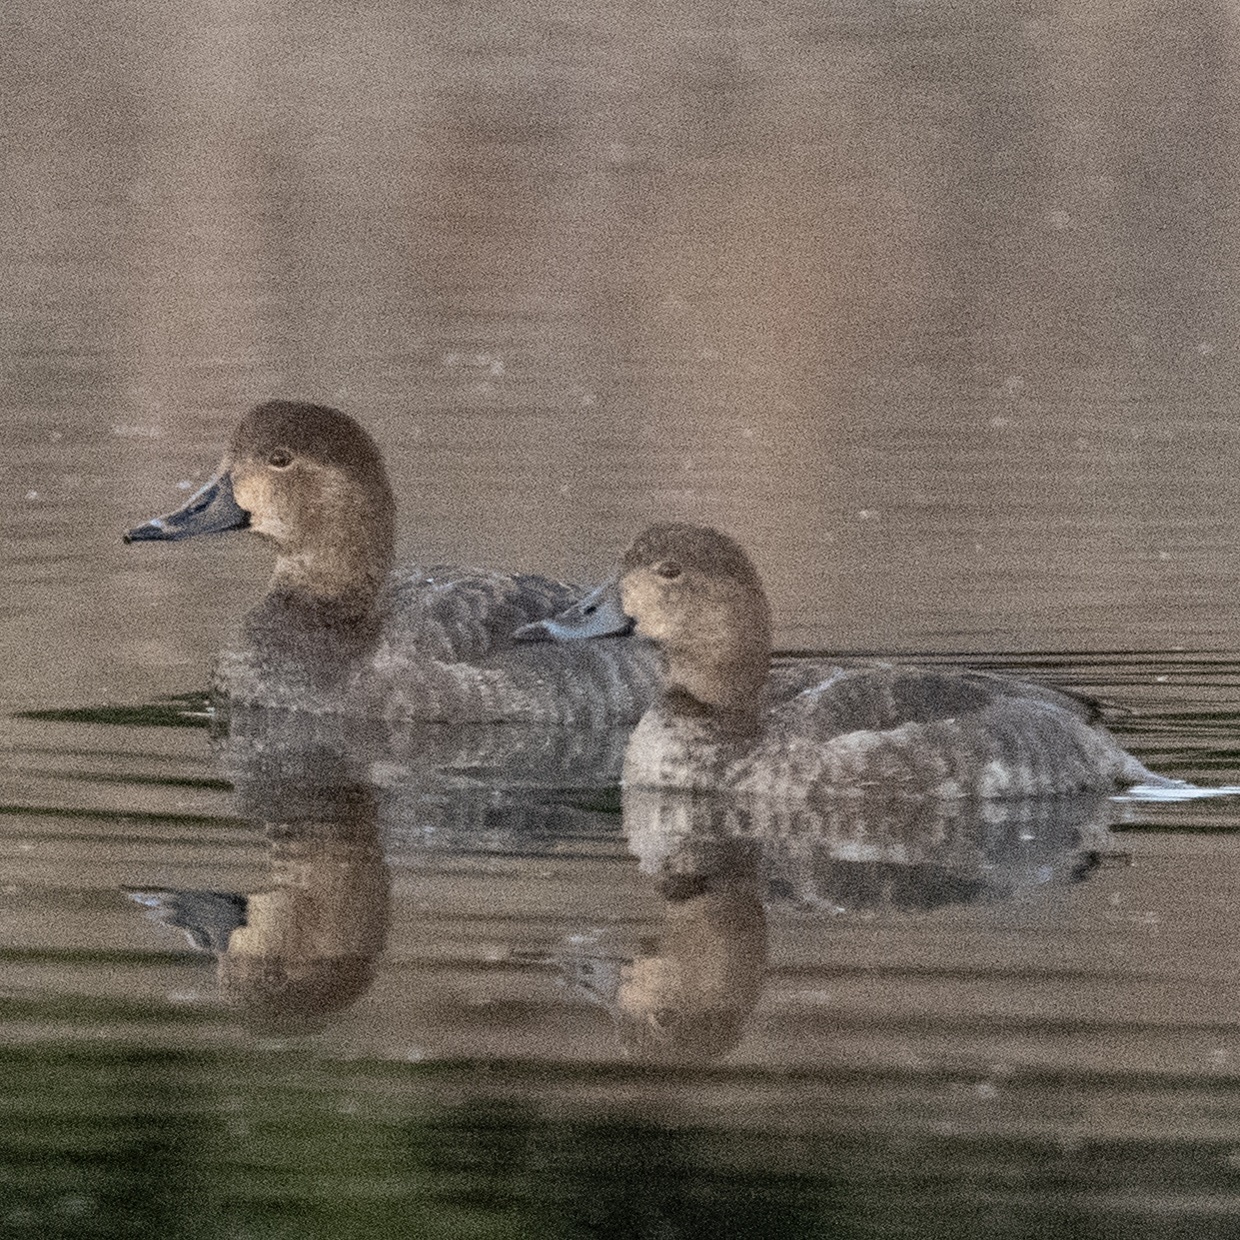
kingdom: Animalia
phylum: Chordata
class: Aves
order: Anseriformes
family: Anatidae
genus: Aythya
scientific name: Aythya americana
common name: Redhead
